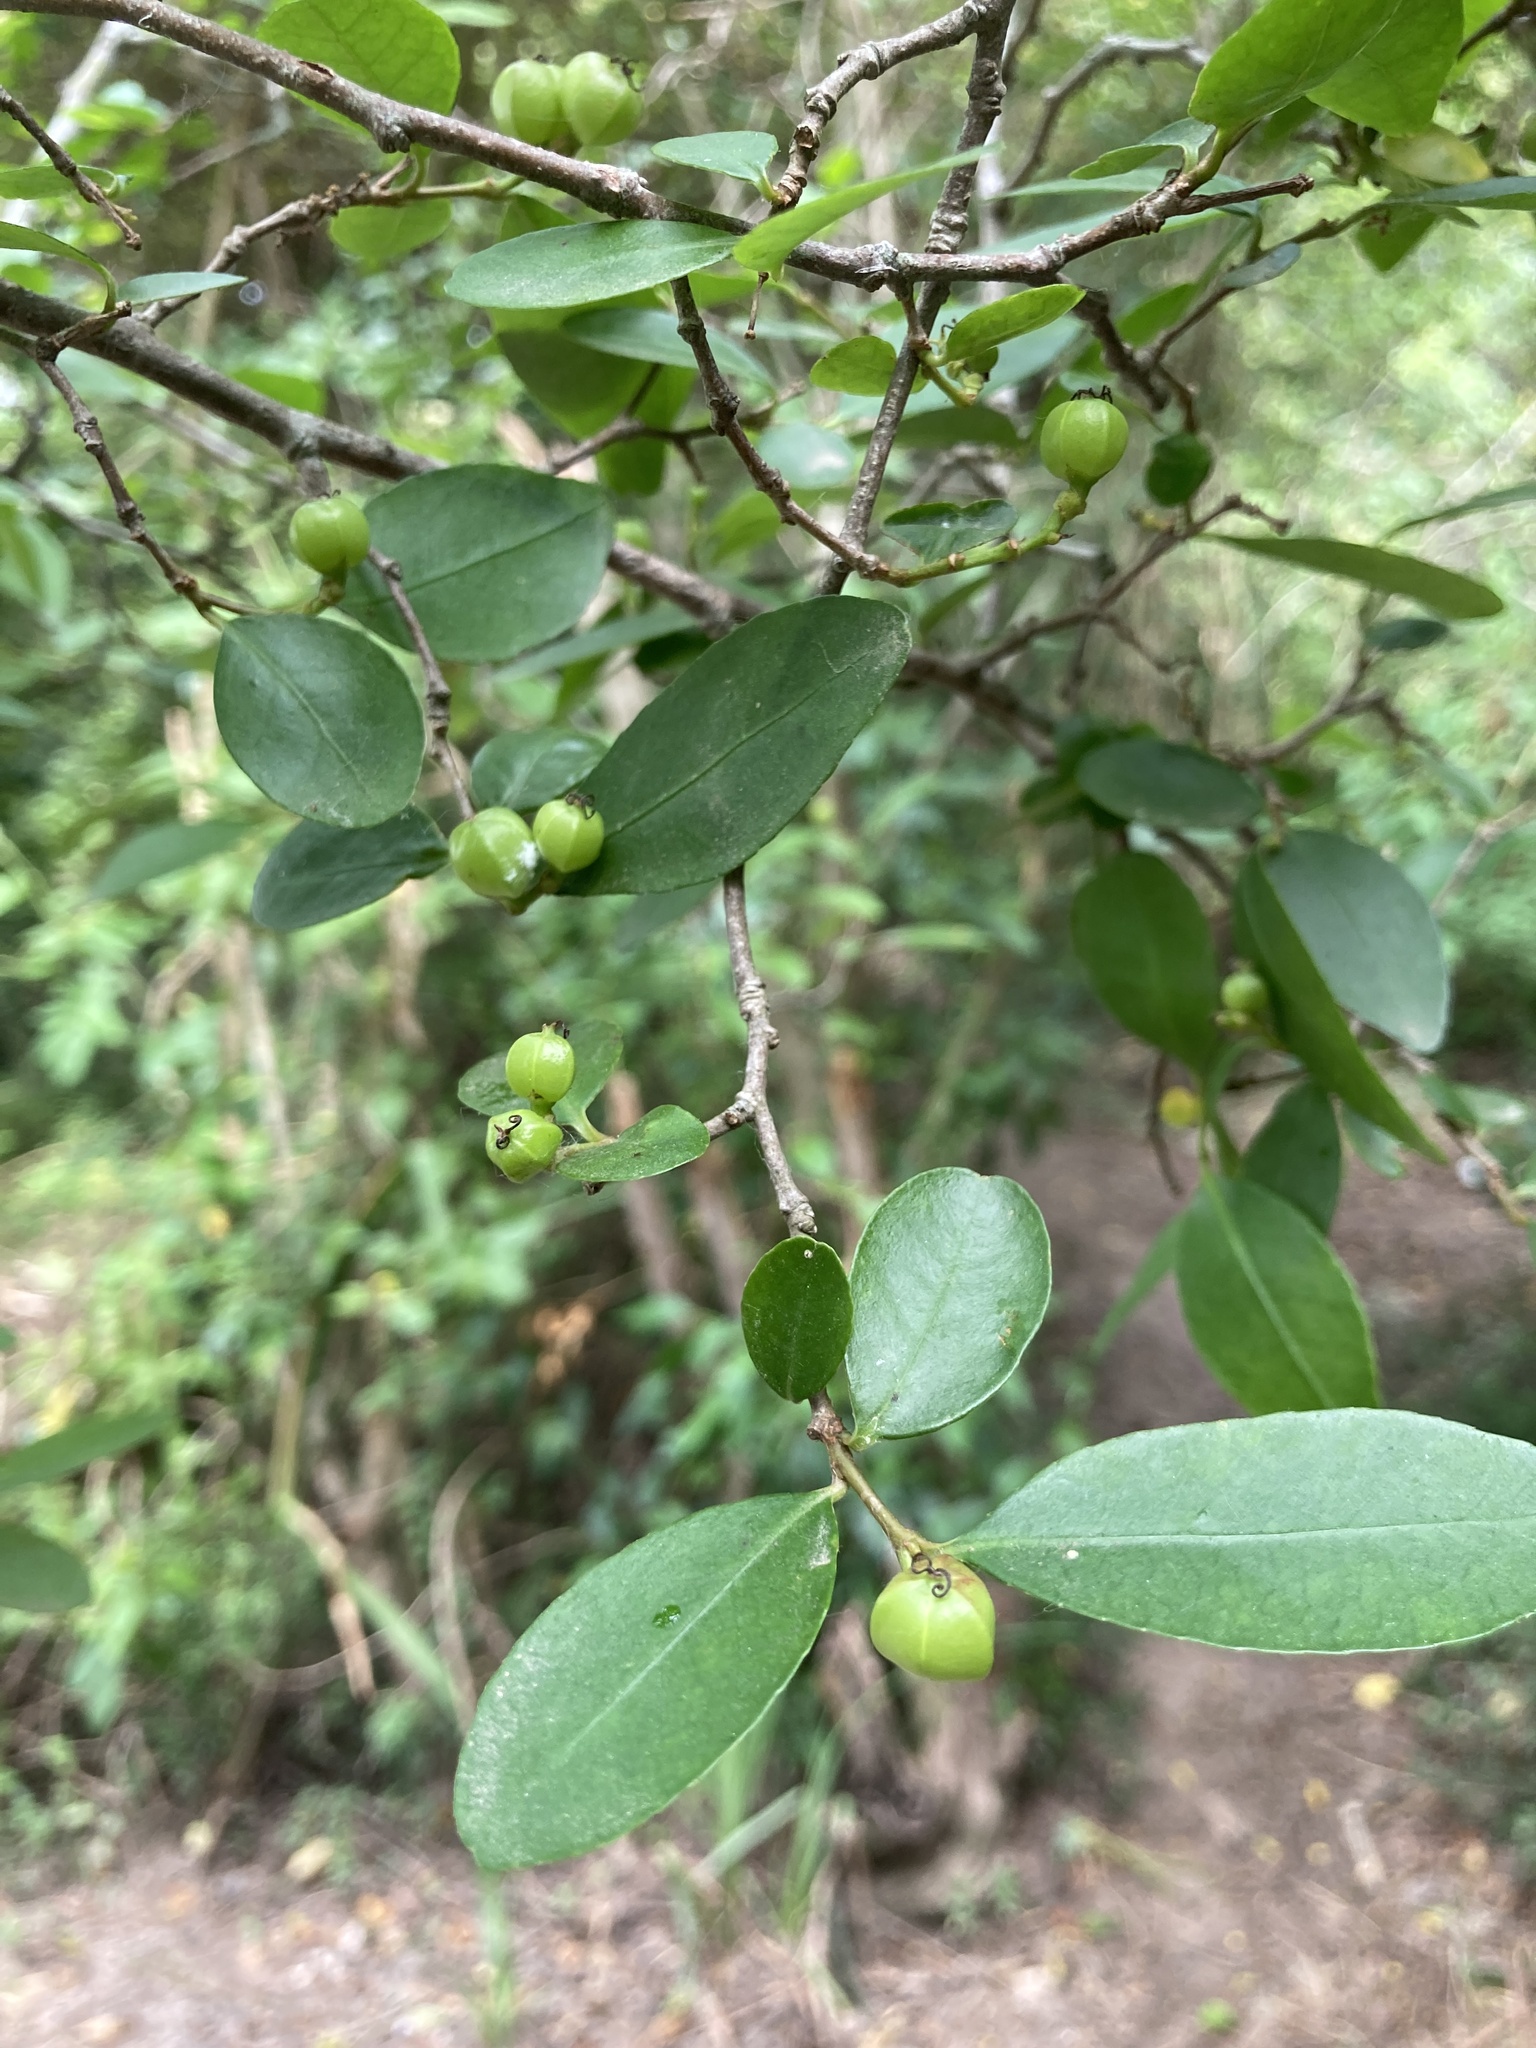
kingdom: Plantae
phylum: Tracheophyta
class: Magnoliopsida
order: Malpighiales
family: Euphorbiaceae
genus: Sebastiania
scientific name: Sebastiania brasiliensis
